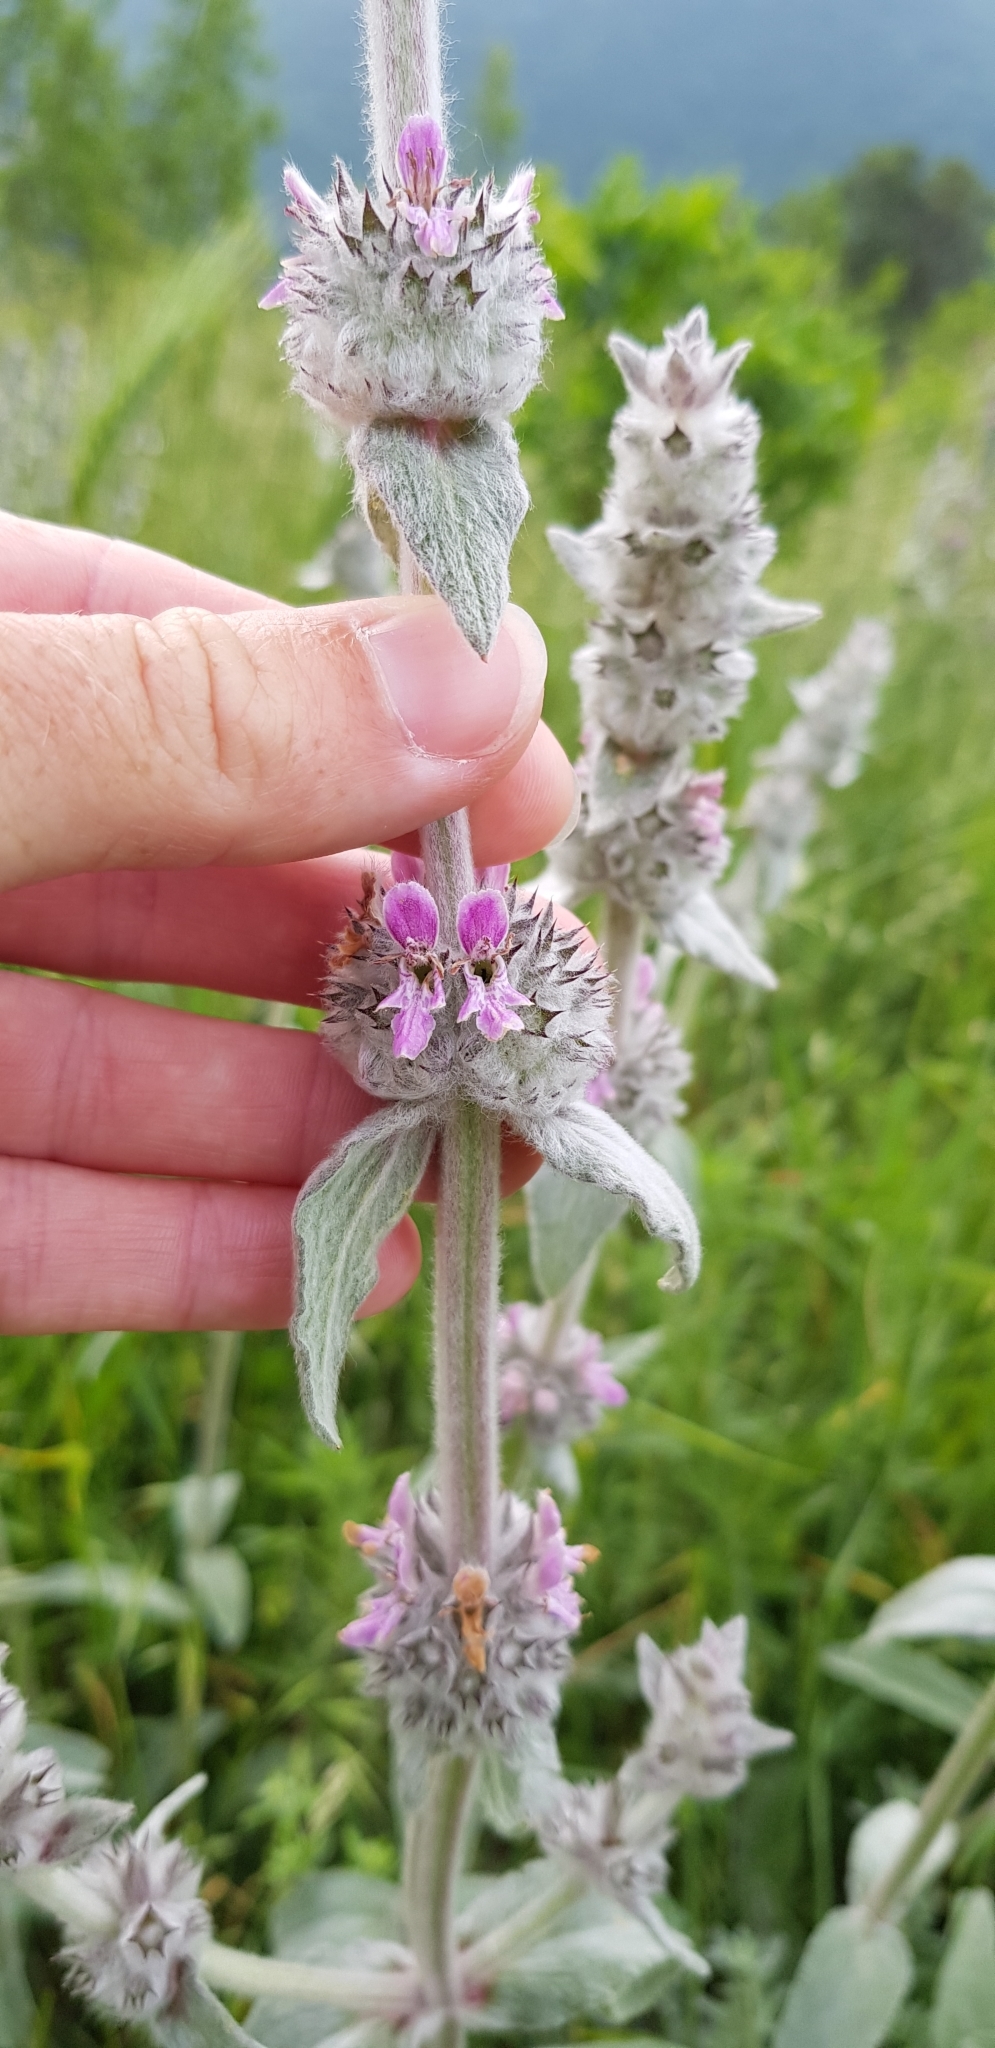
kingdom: Plantae
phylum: Tracheophyta
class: Magnoliopsida
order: Lamiales
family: Lamiaceae
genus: Stachys
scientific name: Stachys cretica
